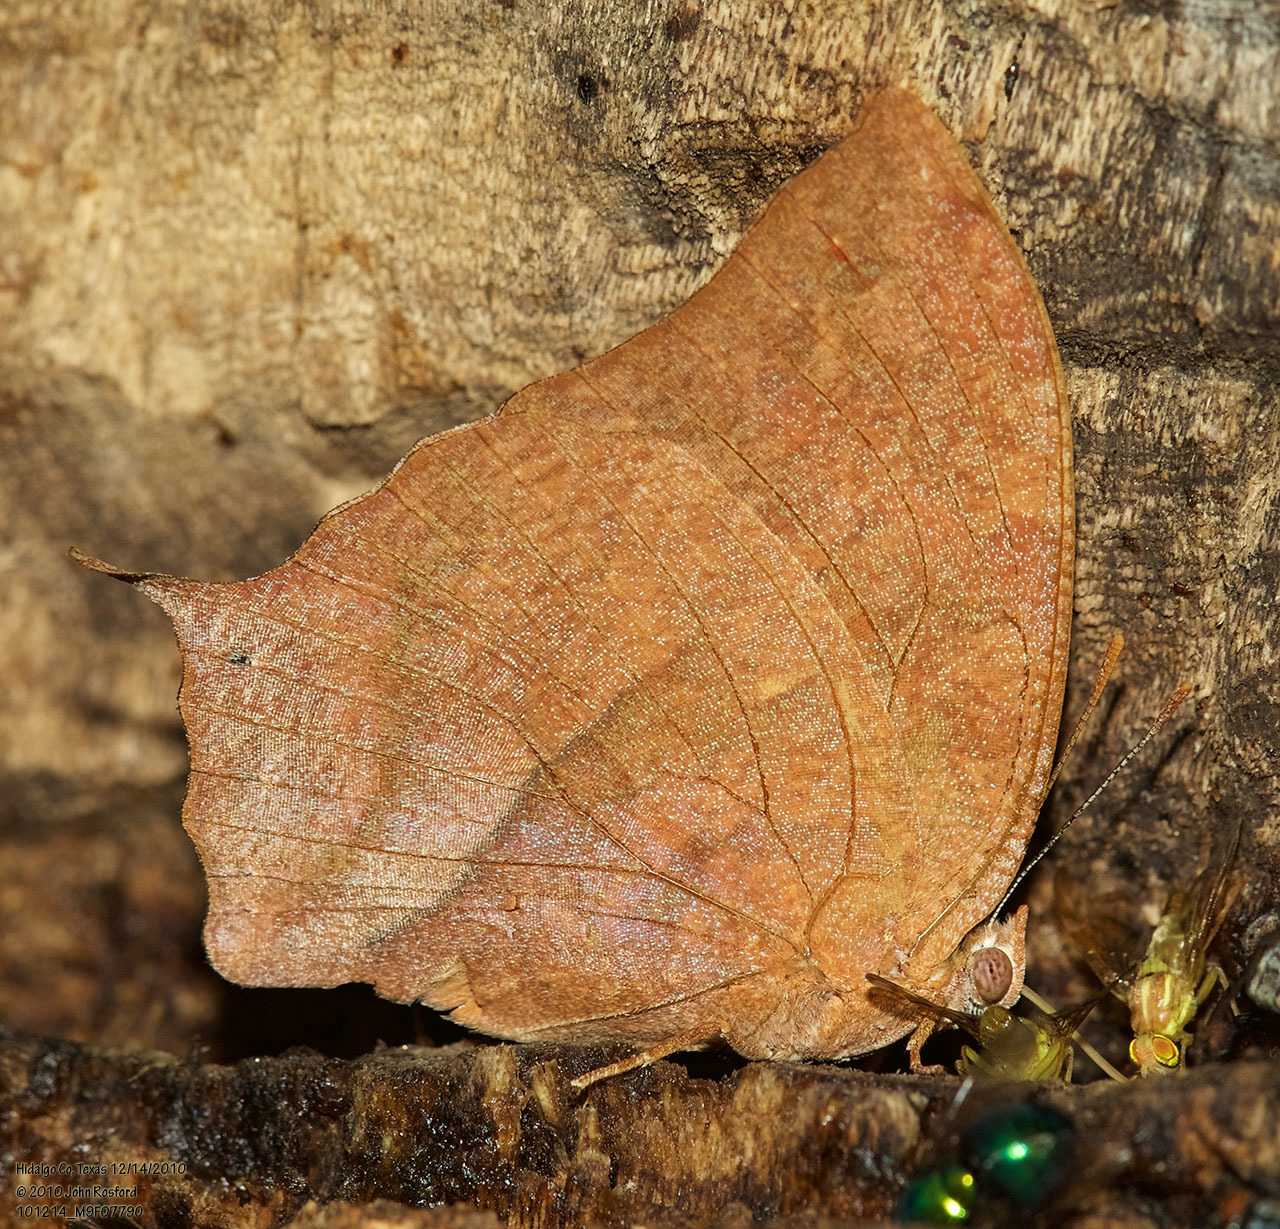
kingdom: Animalia
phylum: Arthropoda
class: Insecta
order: Lepidoptera
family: Nymphalidae
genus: Fountainea
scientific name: Fountainea
